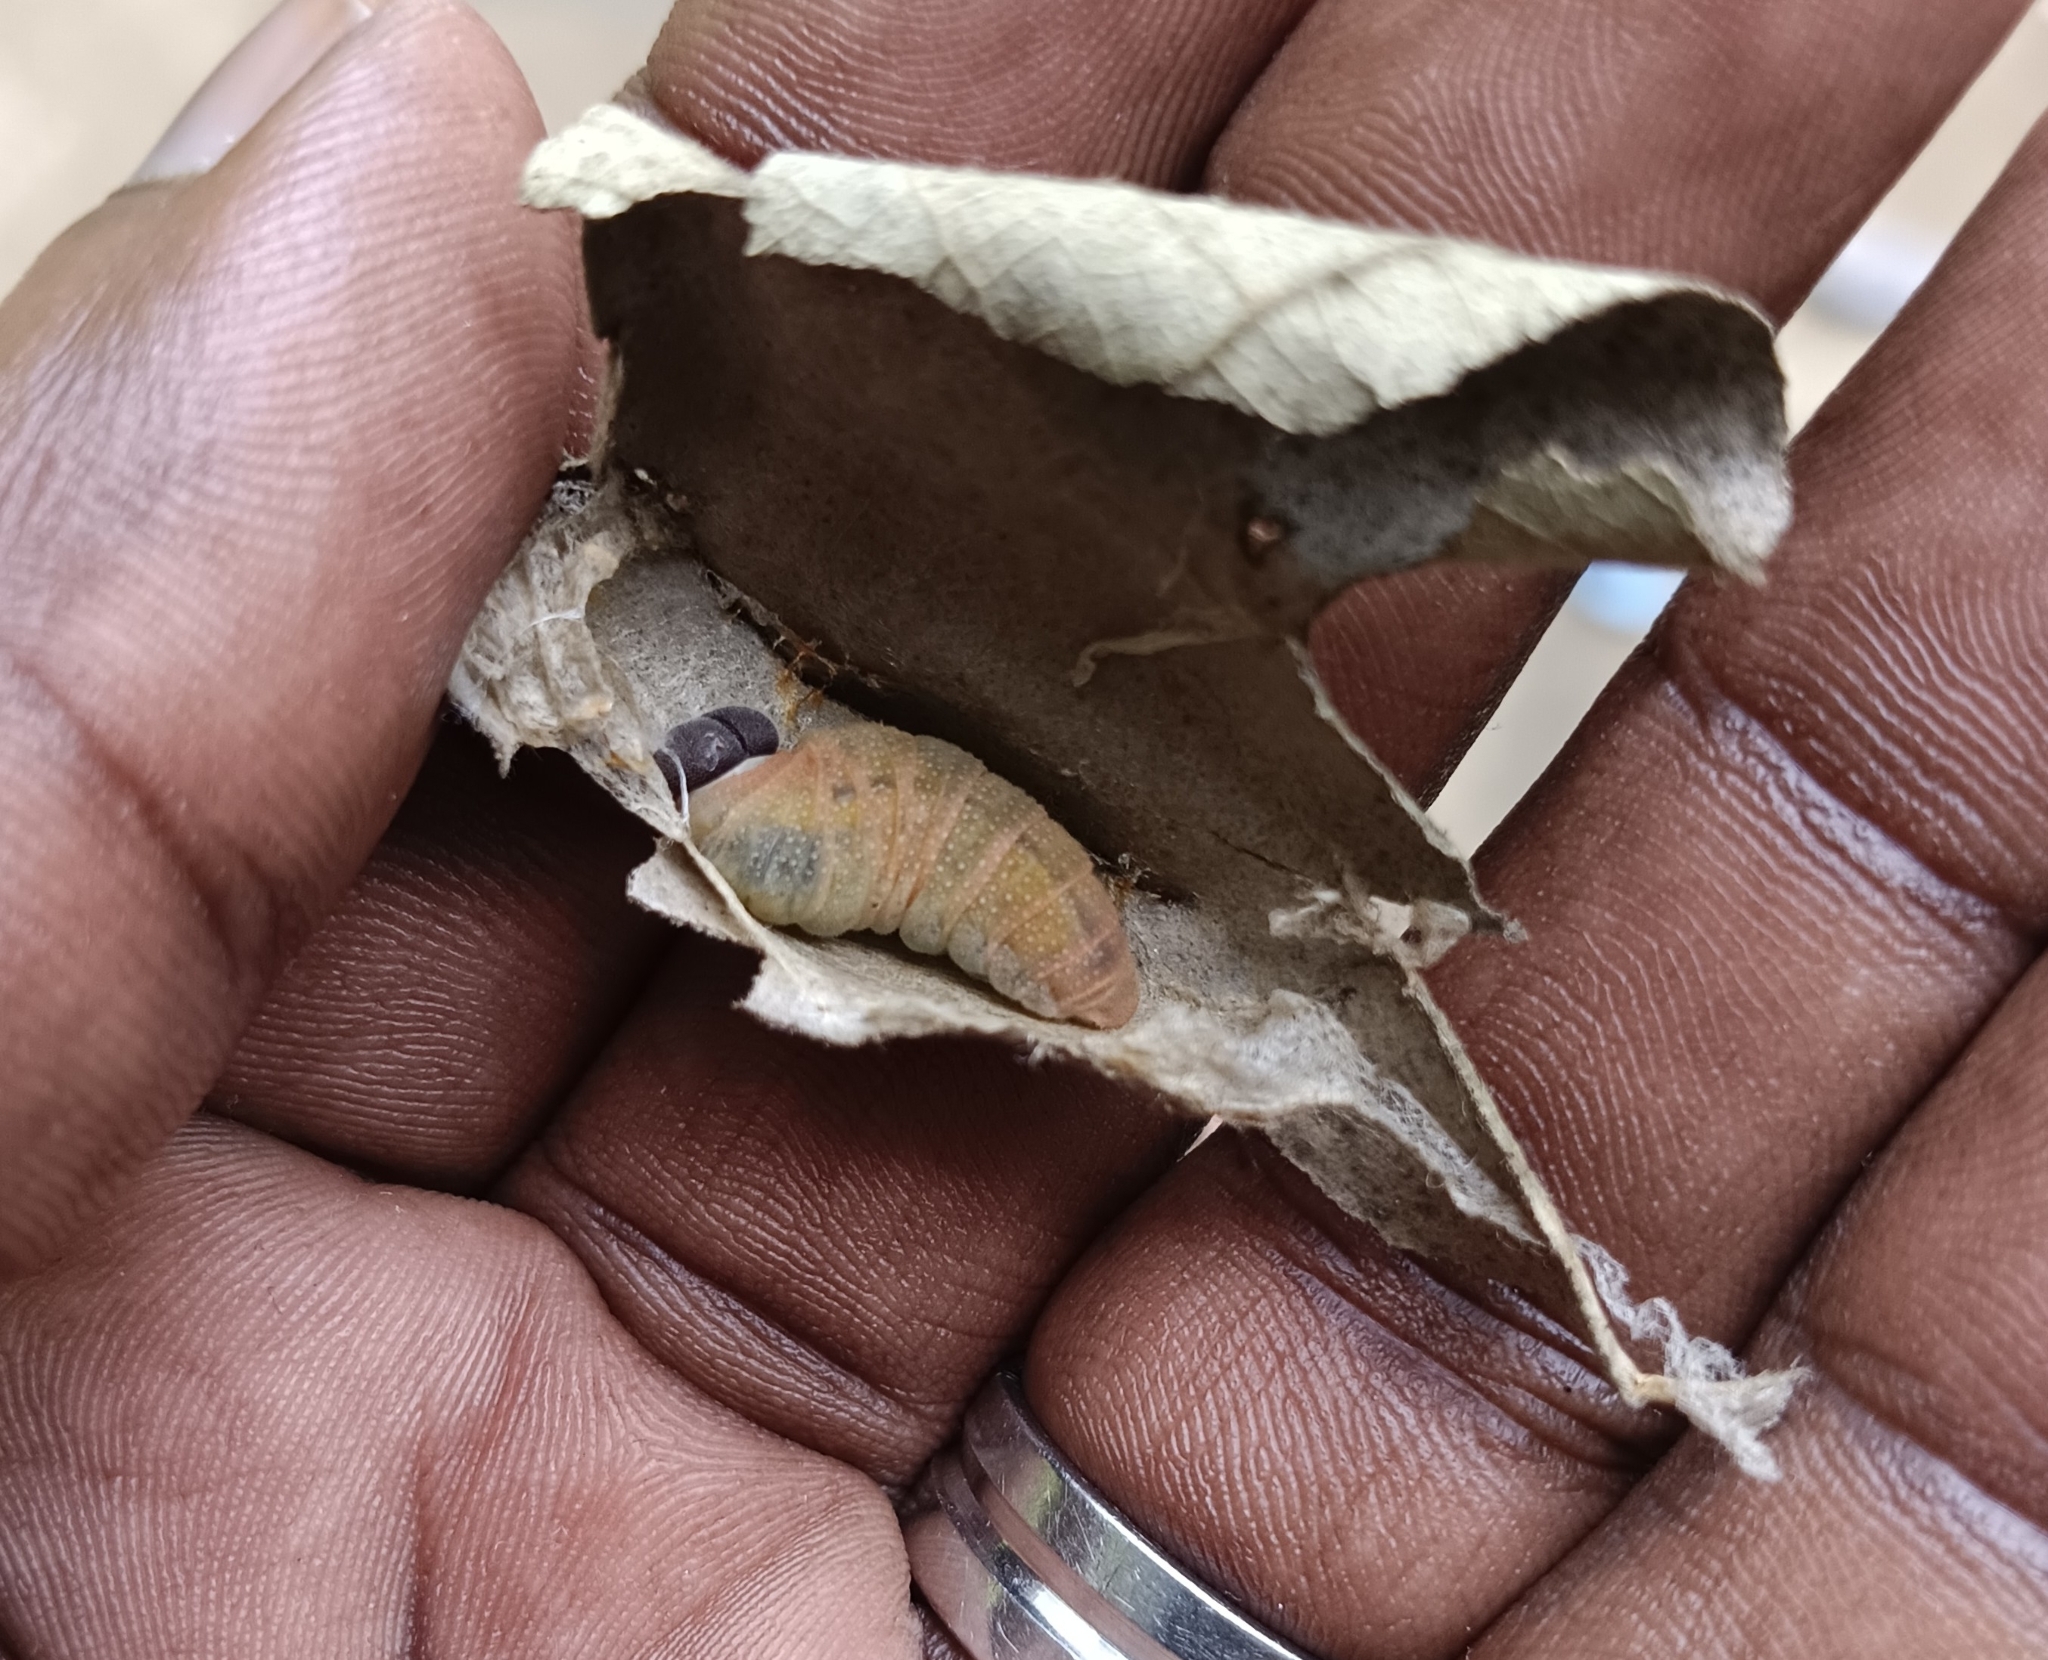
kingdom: Animalia
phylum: Arthropoda
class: Insecta
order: Lepidoptera
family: Hesperiidae
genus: Coladenia
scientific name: Coladenia
